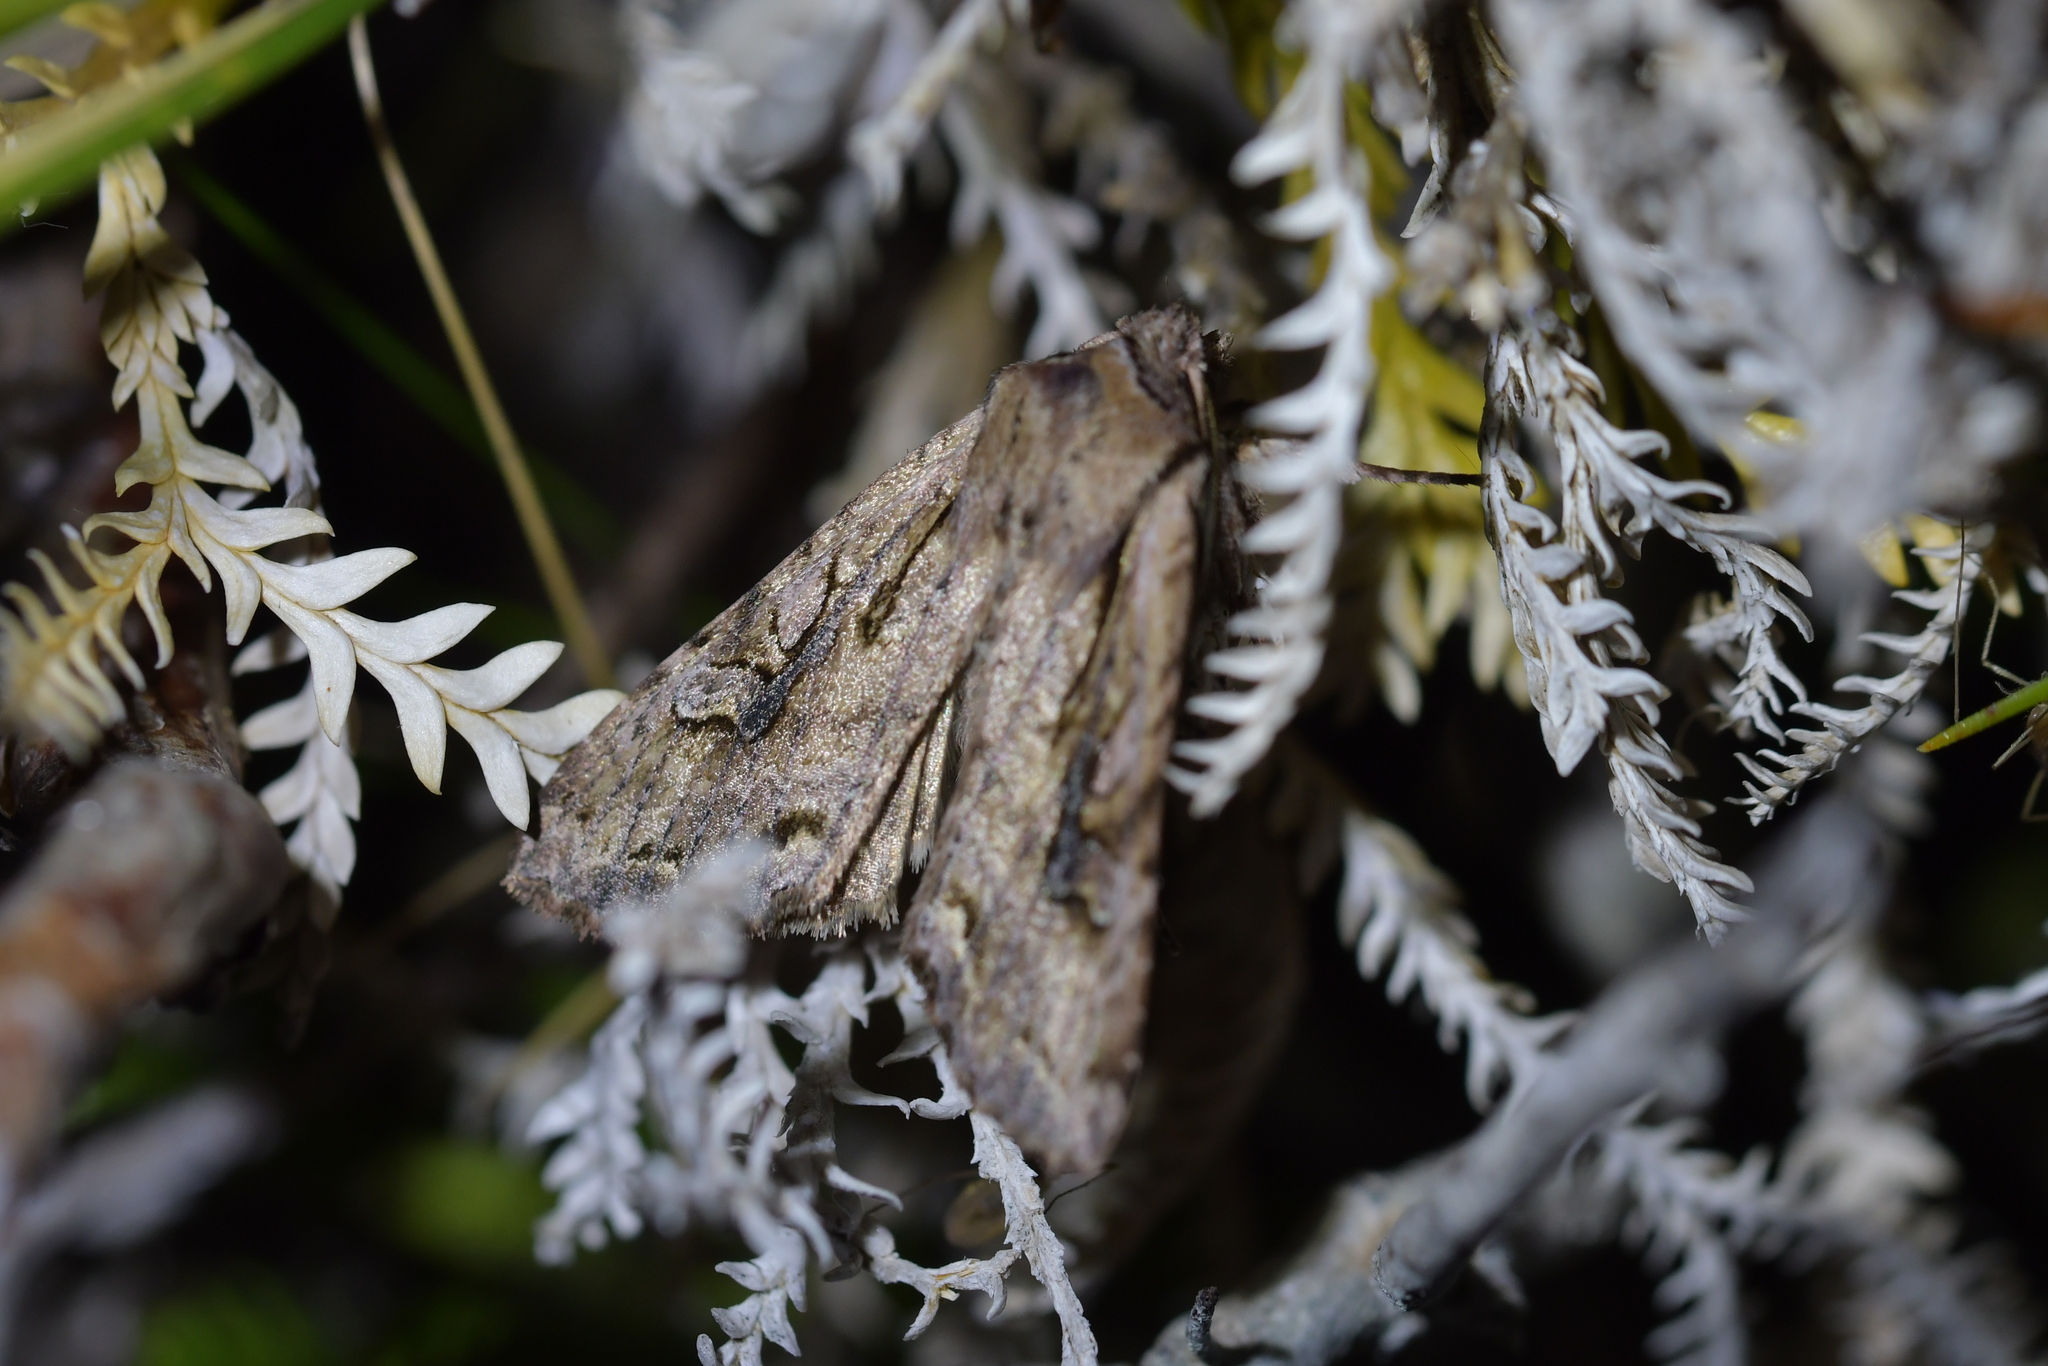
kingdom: Animalia
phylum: Arthropoda
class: Insecta
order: Lepidoptera
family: Noctuidae
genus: Ichneutica
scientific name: Ichneutica lindsayorum
